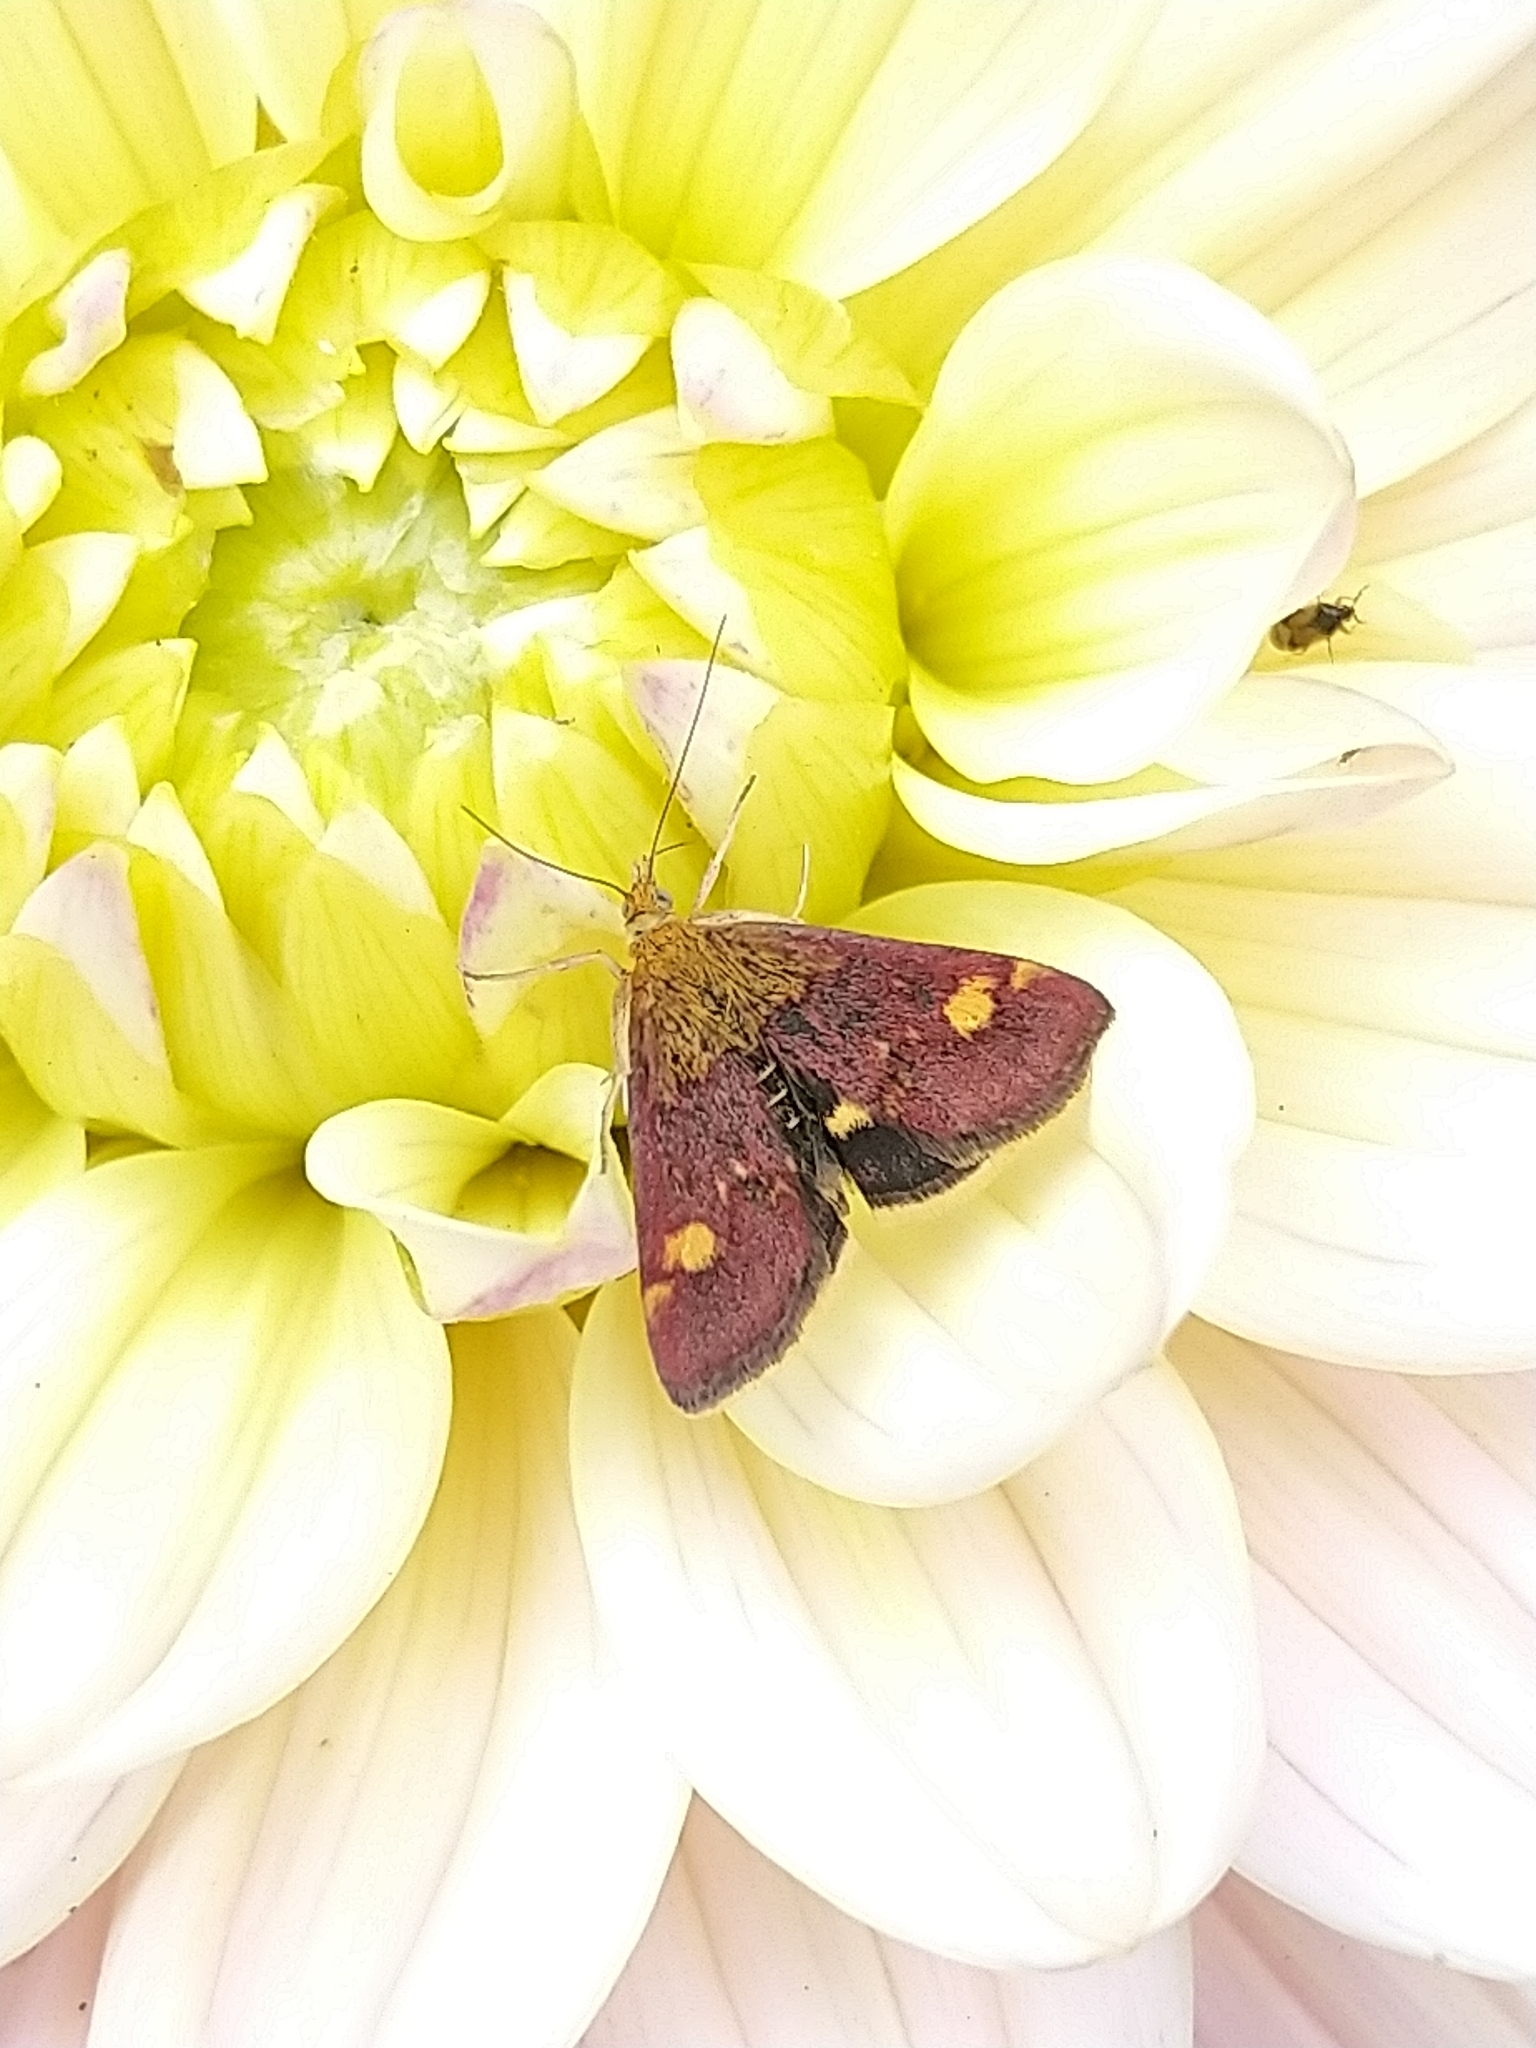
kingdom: Animalia
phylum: Arthropoda
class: Insecta
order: Lepidoptera
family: Crambidae
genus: Pyrausta
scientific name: Pyrausta aurata
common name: Small purple & gold
